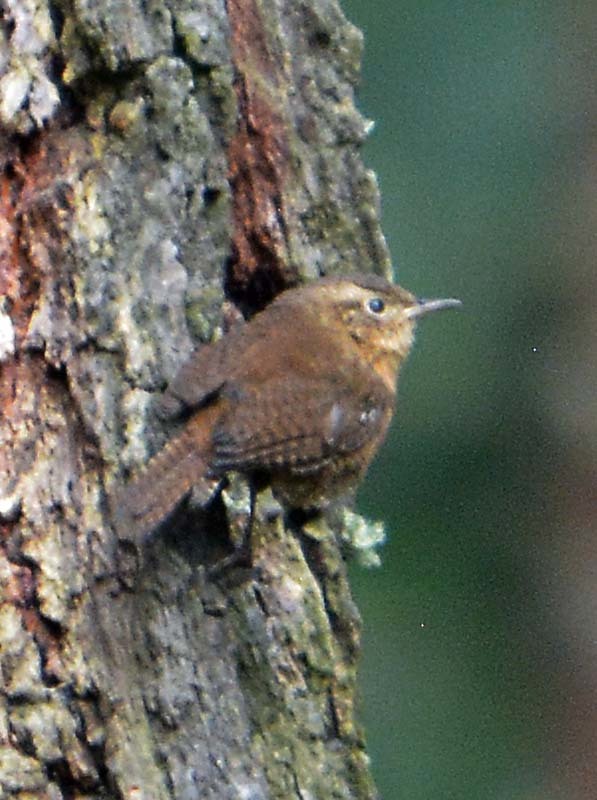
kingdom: Animalia
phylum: Chordata
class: Aves
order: Passeriformes
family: Troglodytidae
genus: Troglodytes
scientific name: Troglodytes aedon
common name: House wren
